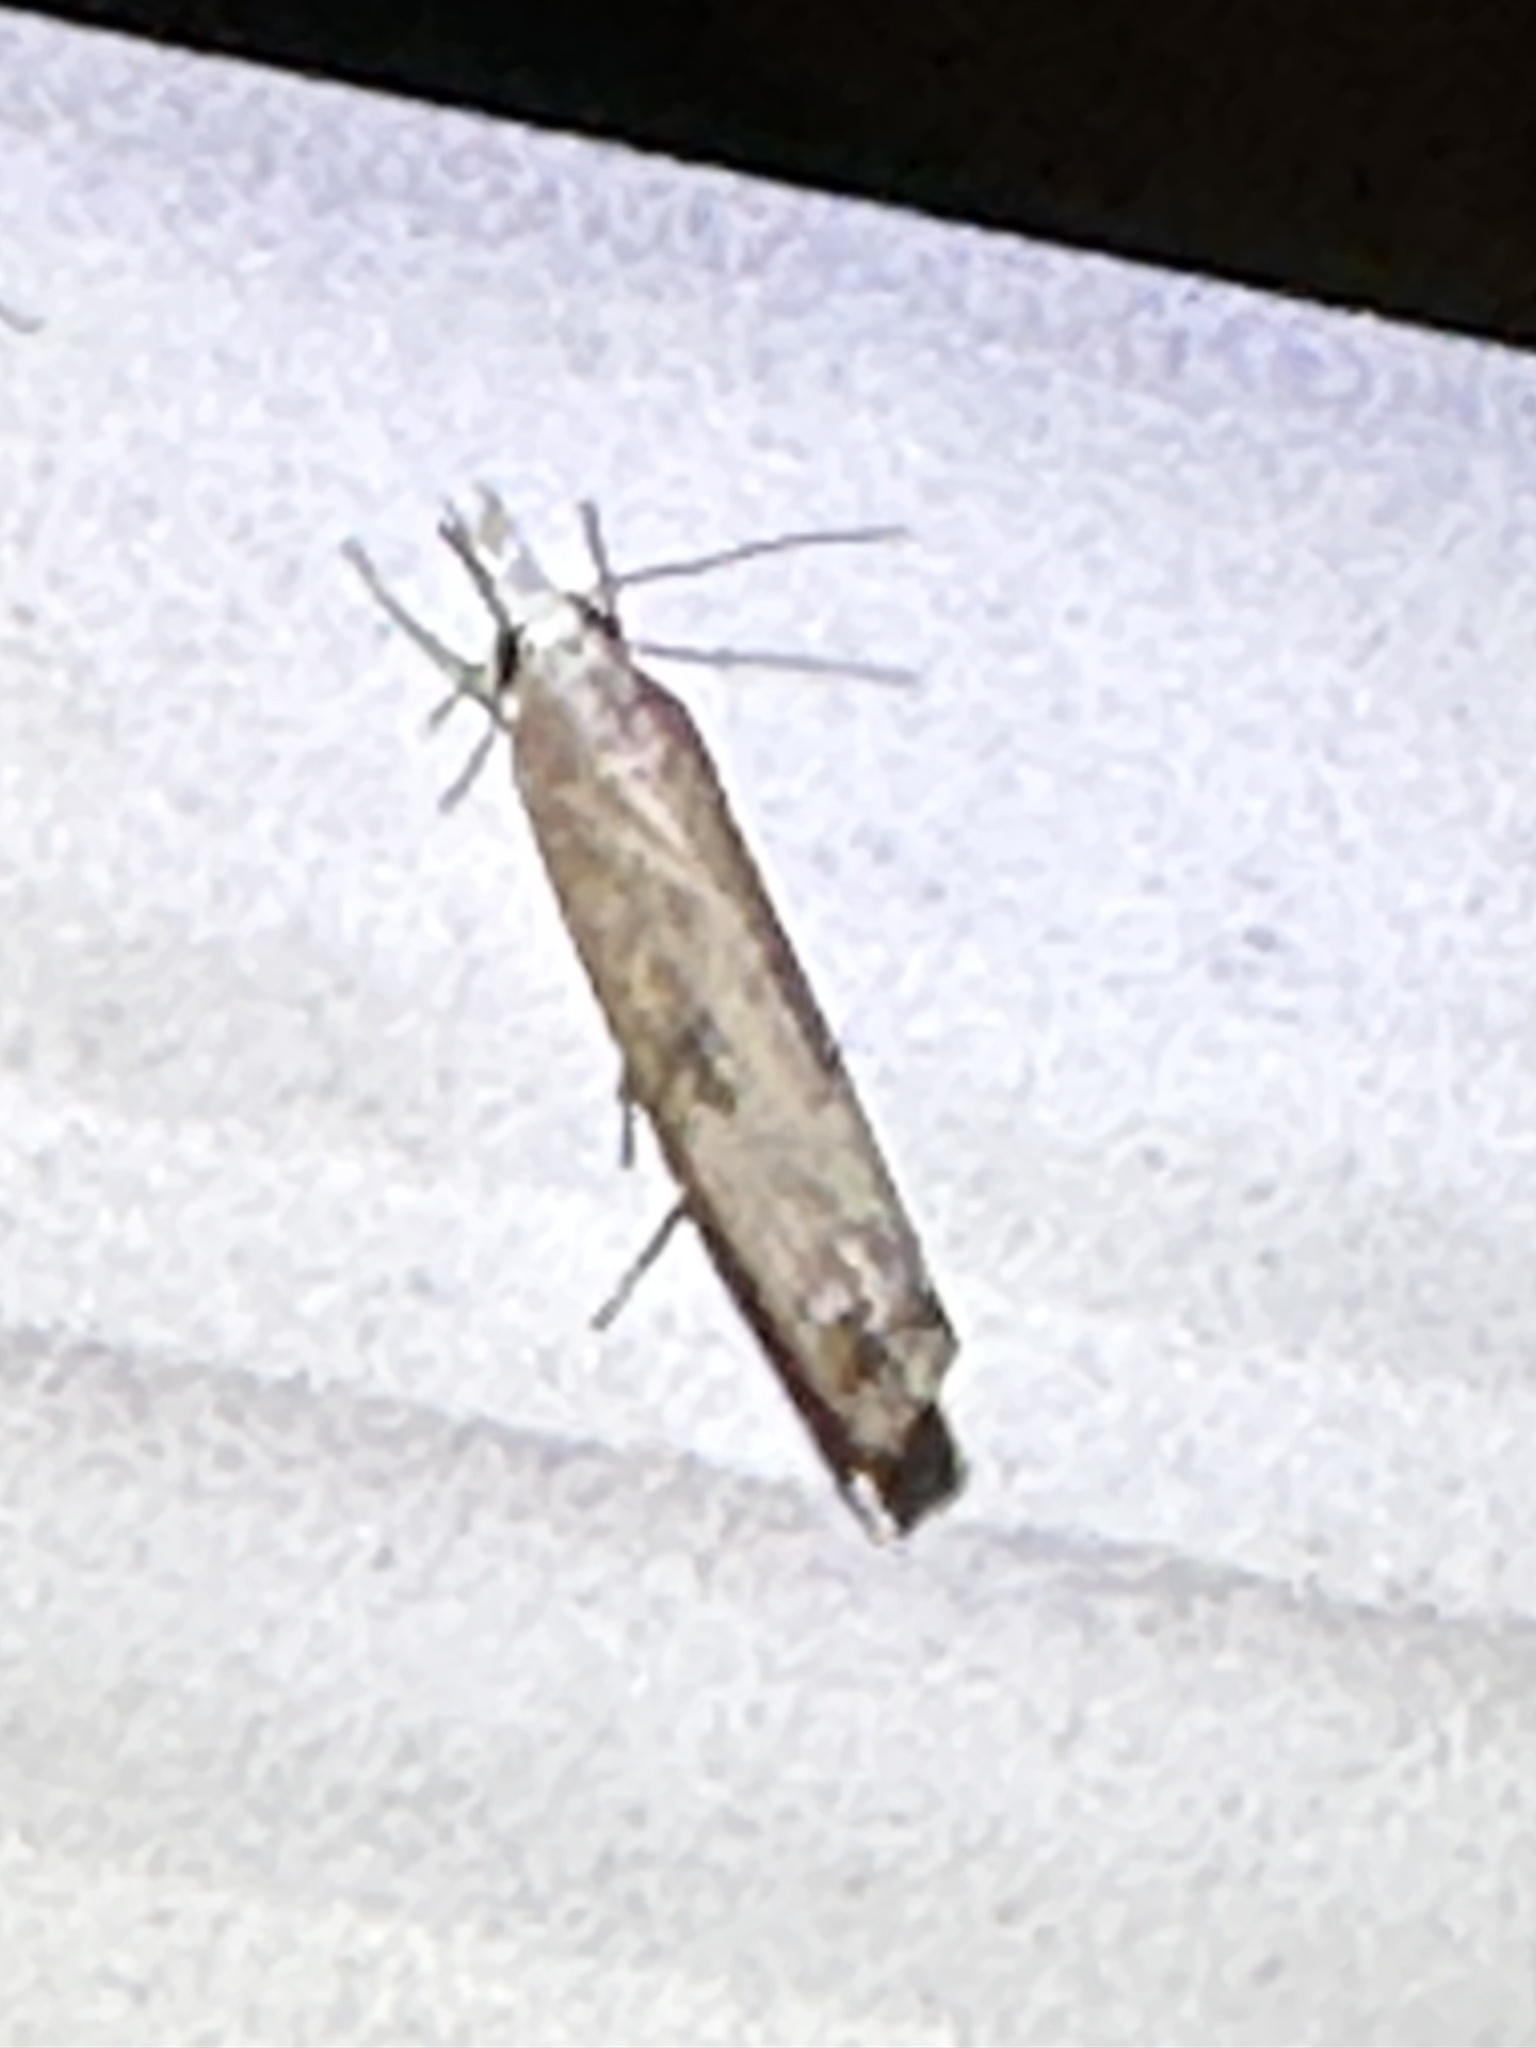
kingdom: Animalia
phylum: Arthropoda
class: Insecta
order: Lepidoptera
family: Crambidae
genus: Parapediasia
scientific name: Parapediasia teterellus
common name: Bluegrass webworm moth
